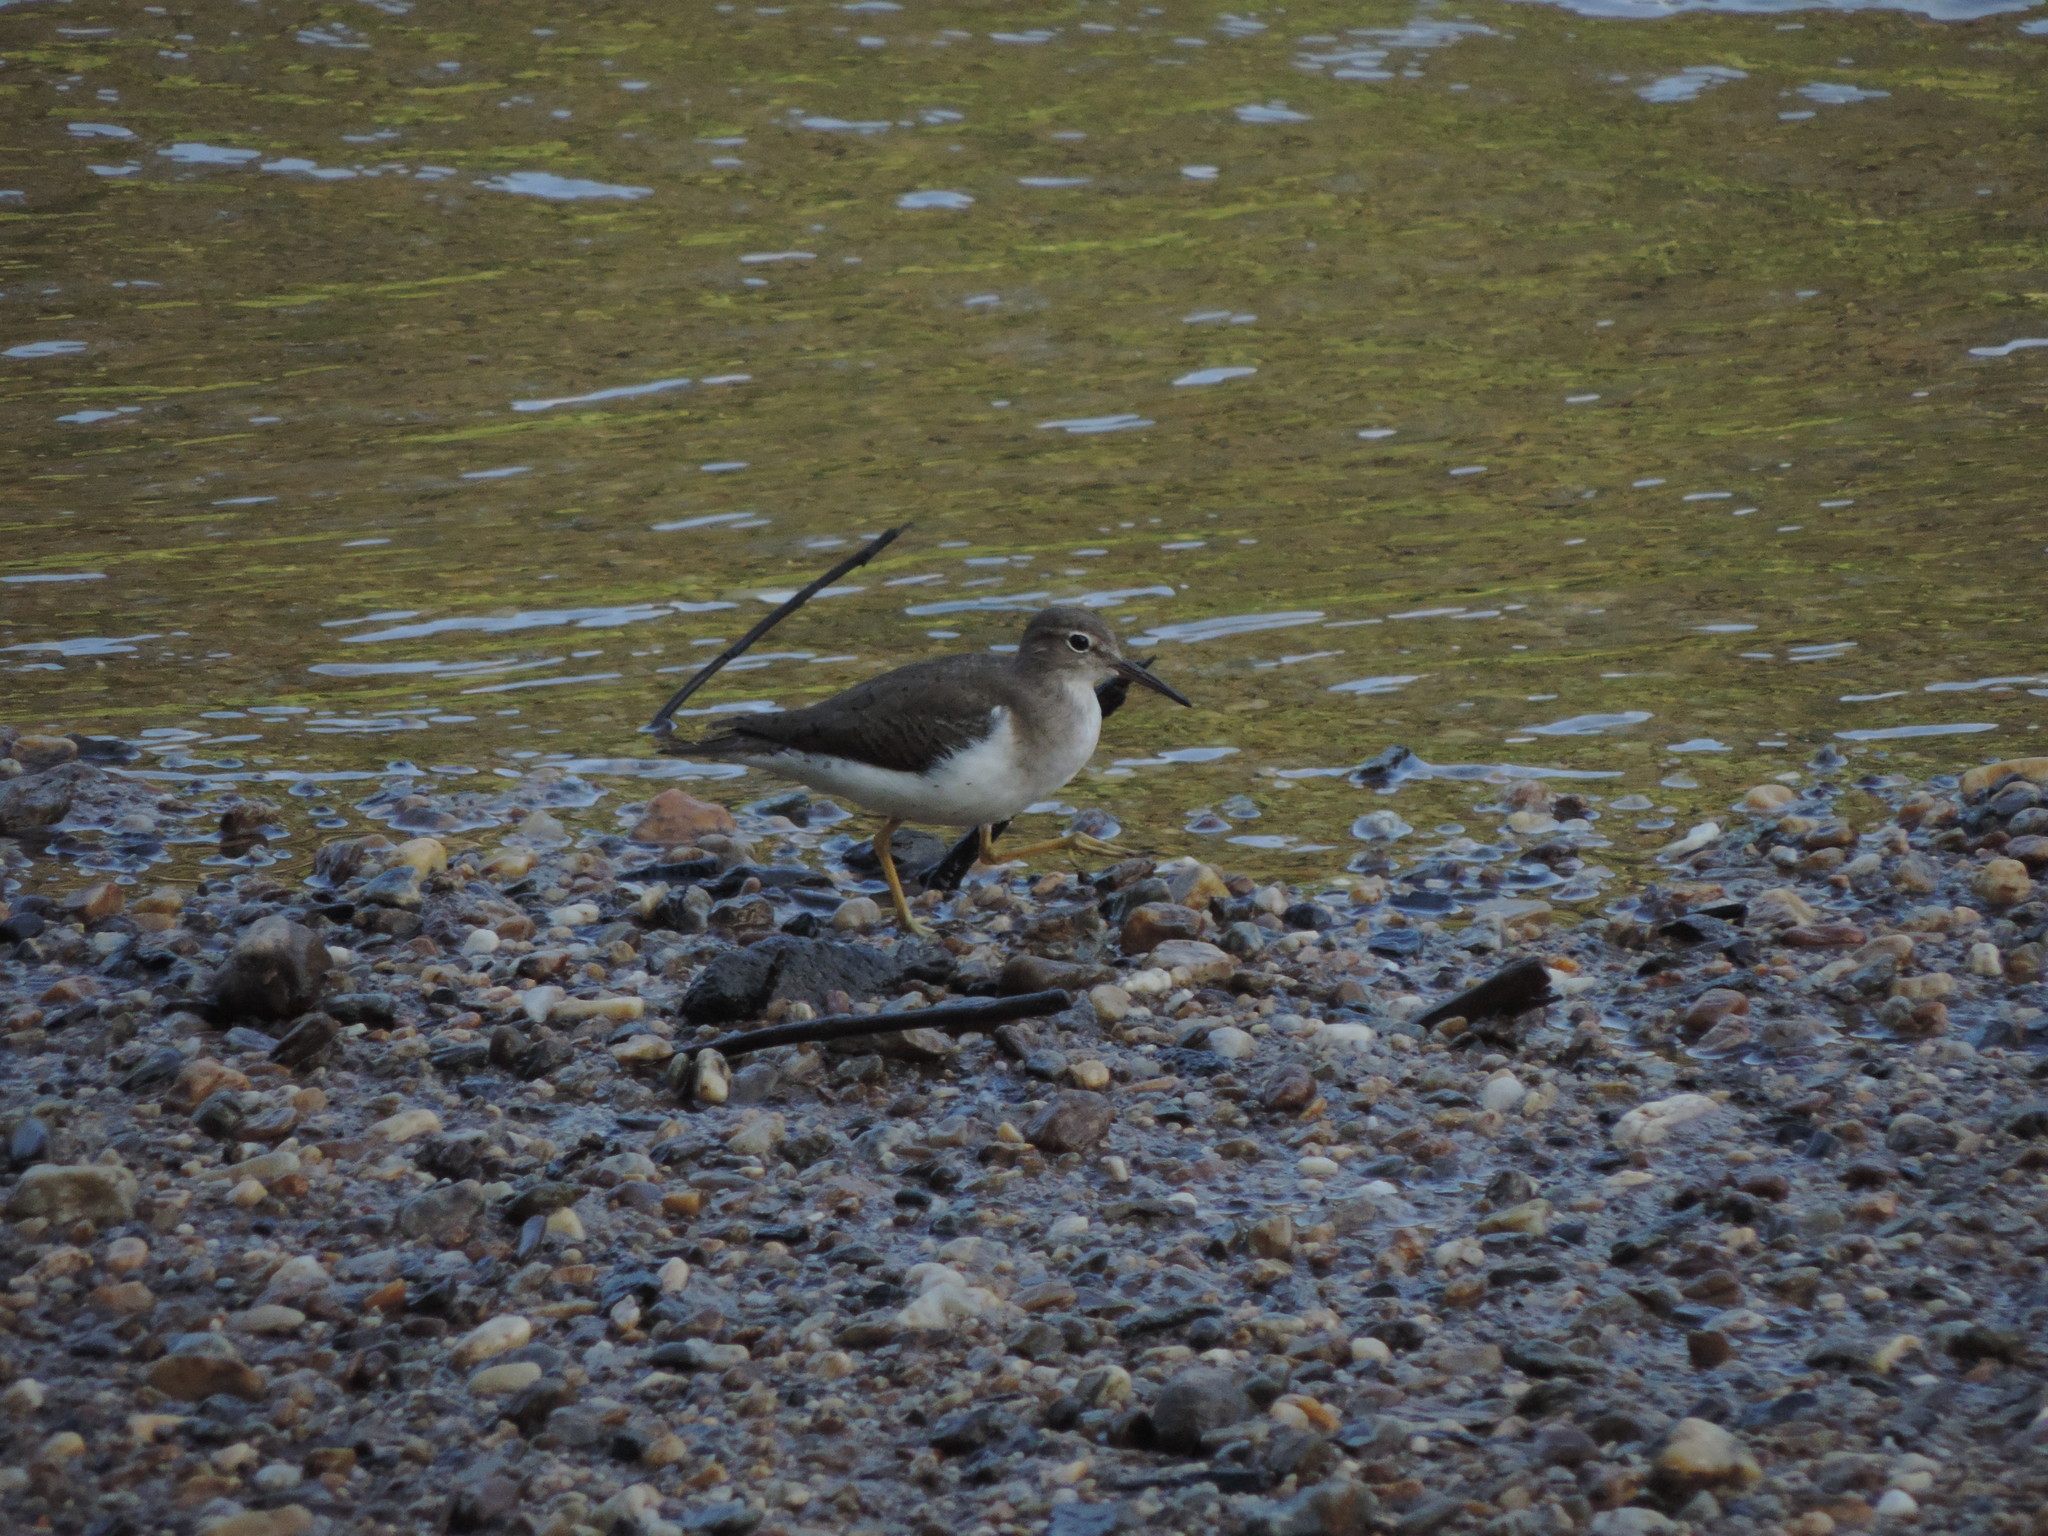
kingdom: Animalia
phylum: Chordata
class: Aves
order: Charadriiformes
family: Scolopacidae
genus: Actitis
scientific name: Actitis macularius
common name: Spotted sandpiper
